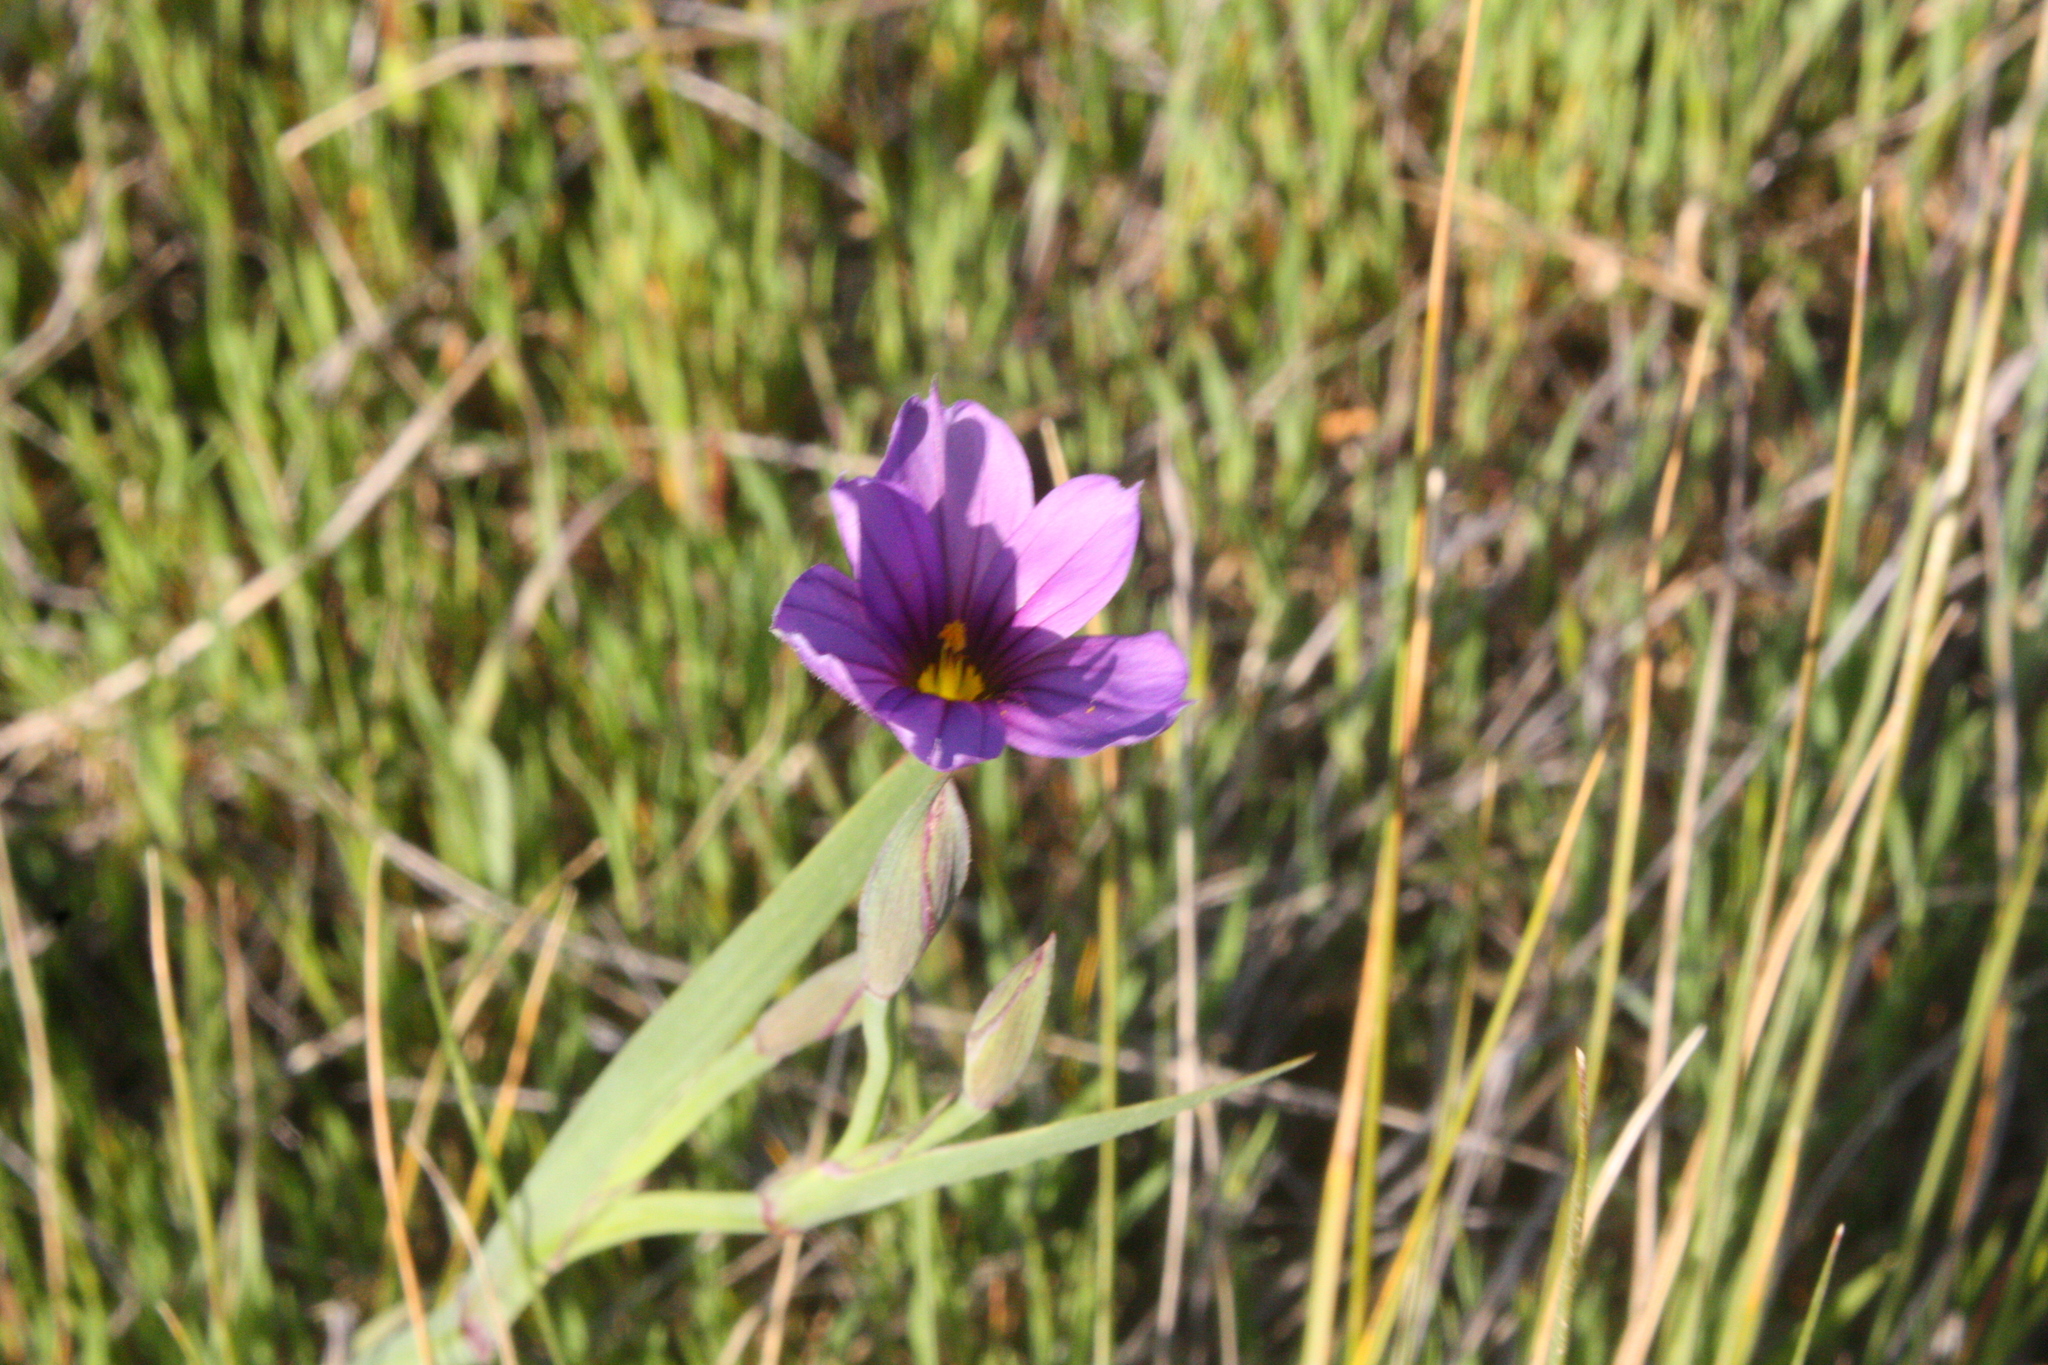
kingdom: Plantae
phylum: Tracheophyta
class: Liliopsida
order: Asparagales
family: Iridaceae
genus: Sisyrinchium
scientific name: Sisyrinchium bellum
